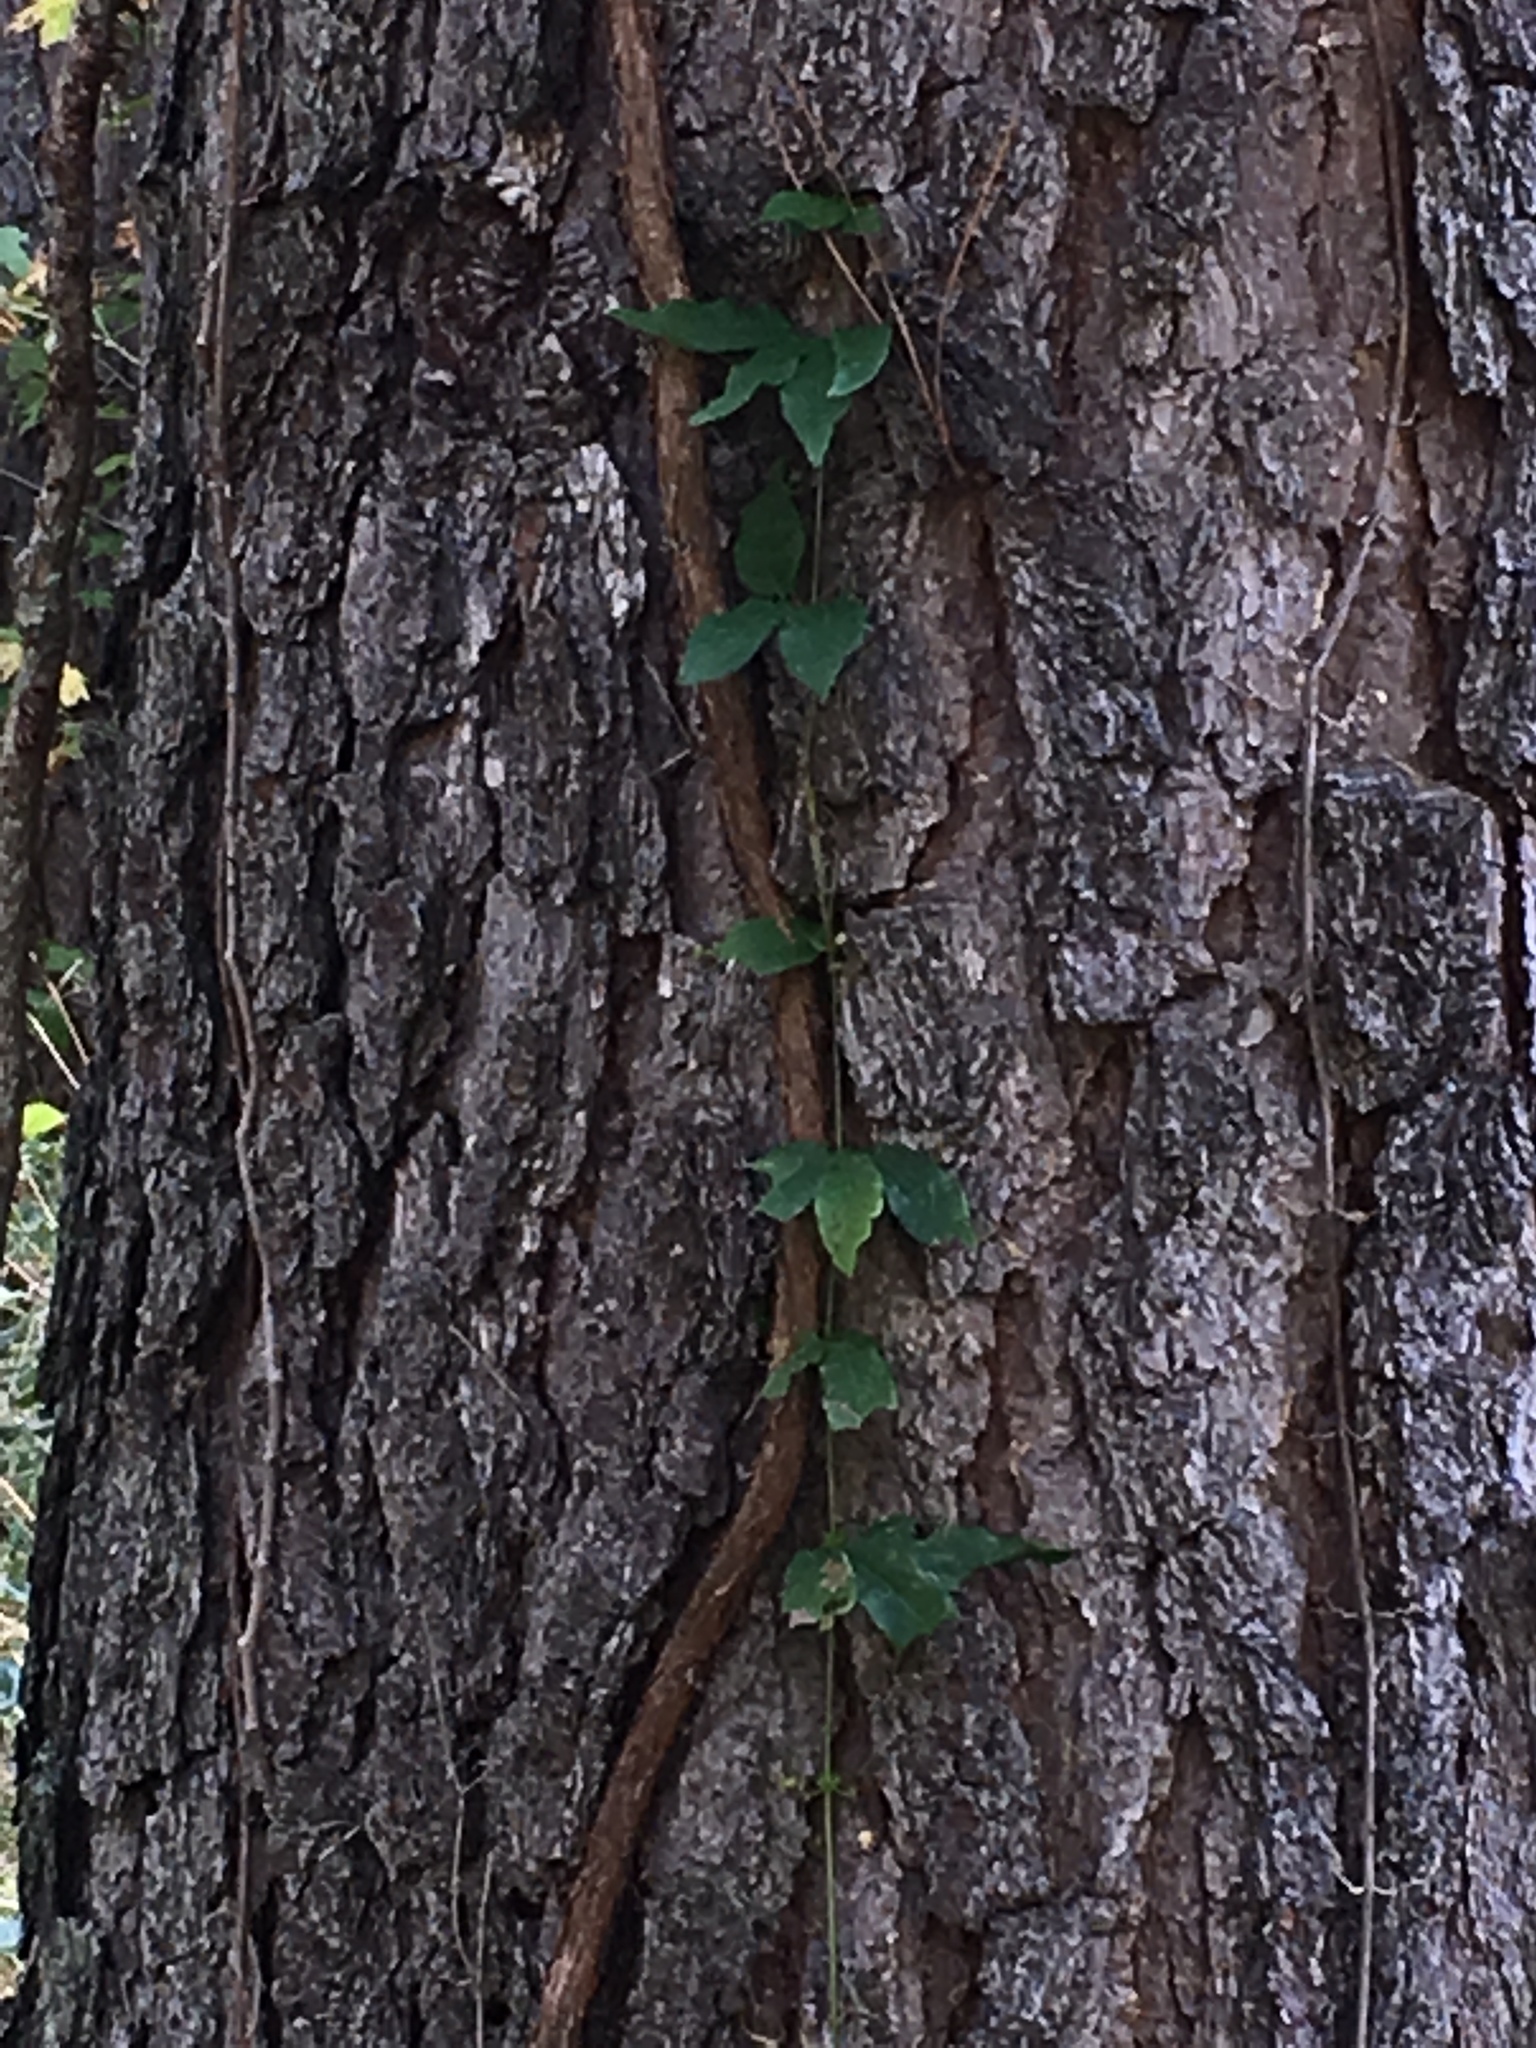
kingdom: Plantae
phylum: Tracheophyta
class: Magnoliopsida
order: Lamiales
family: Bignoniaceae
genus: Bignonia
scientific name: Bignonia capreolata
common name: Crossvine
